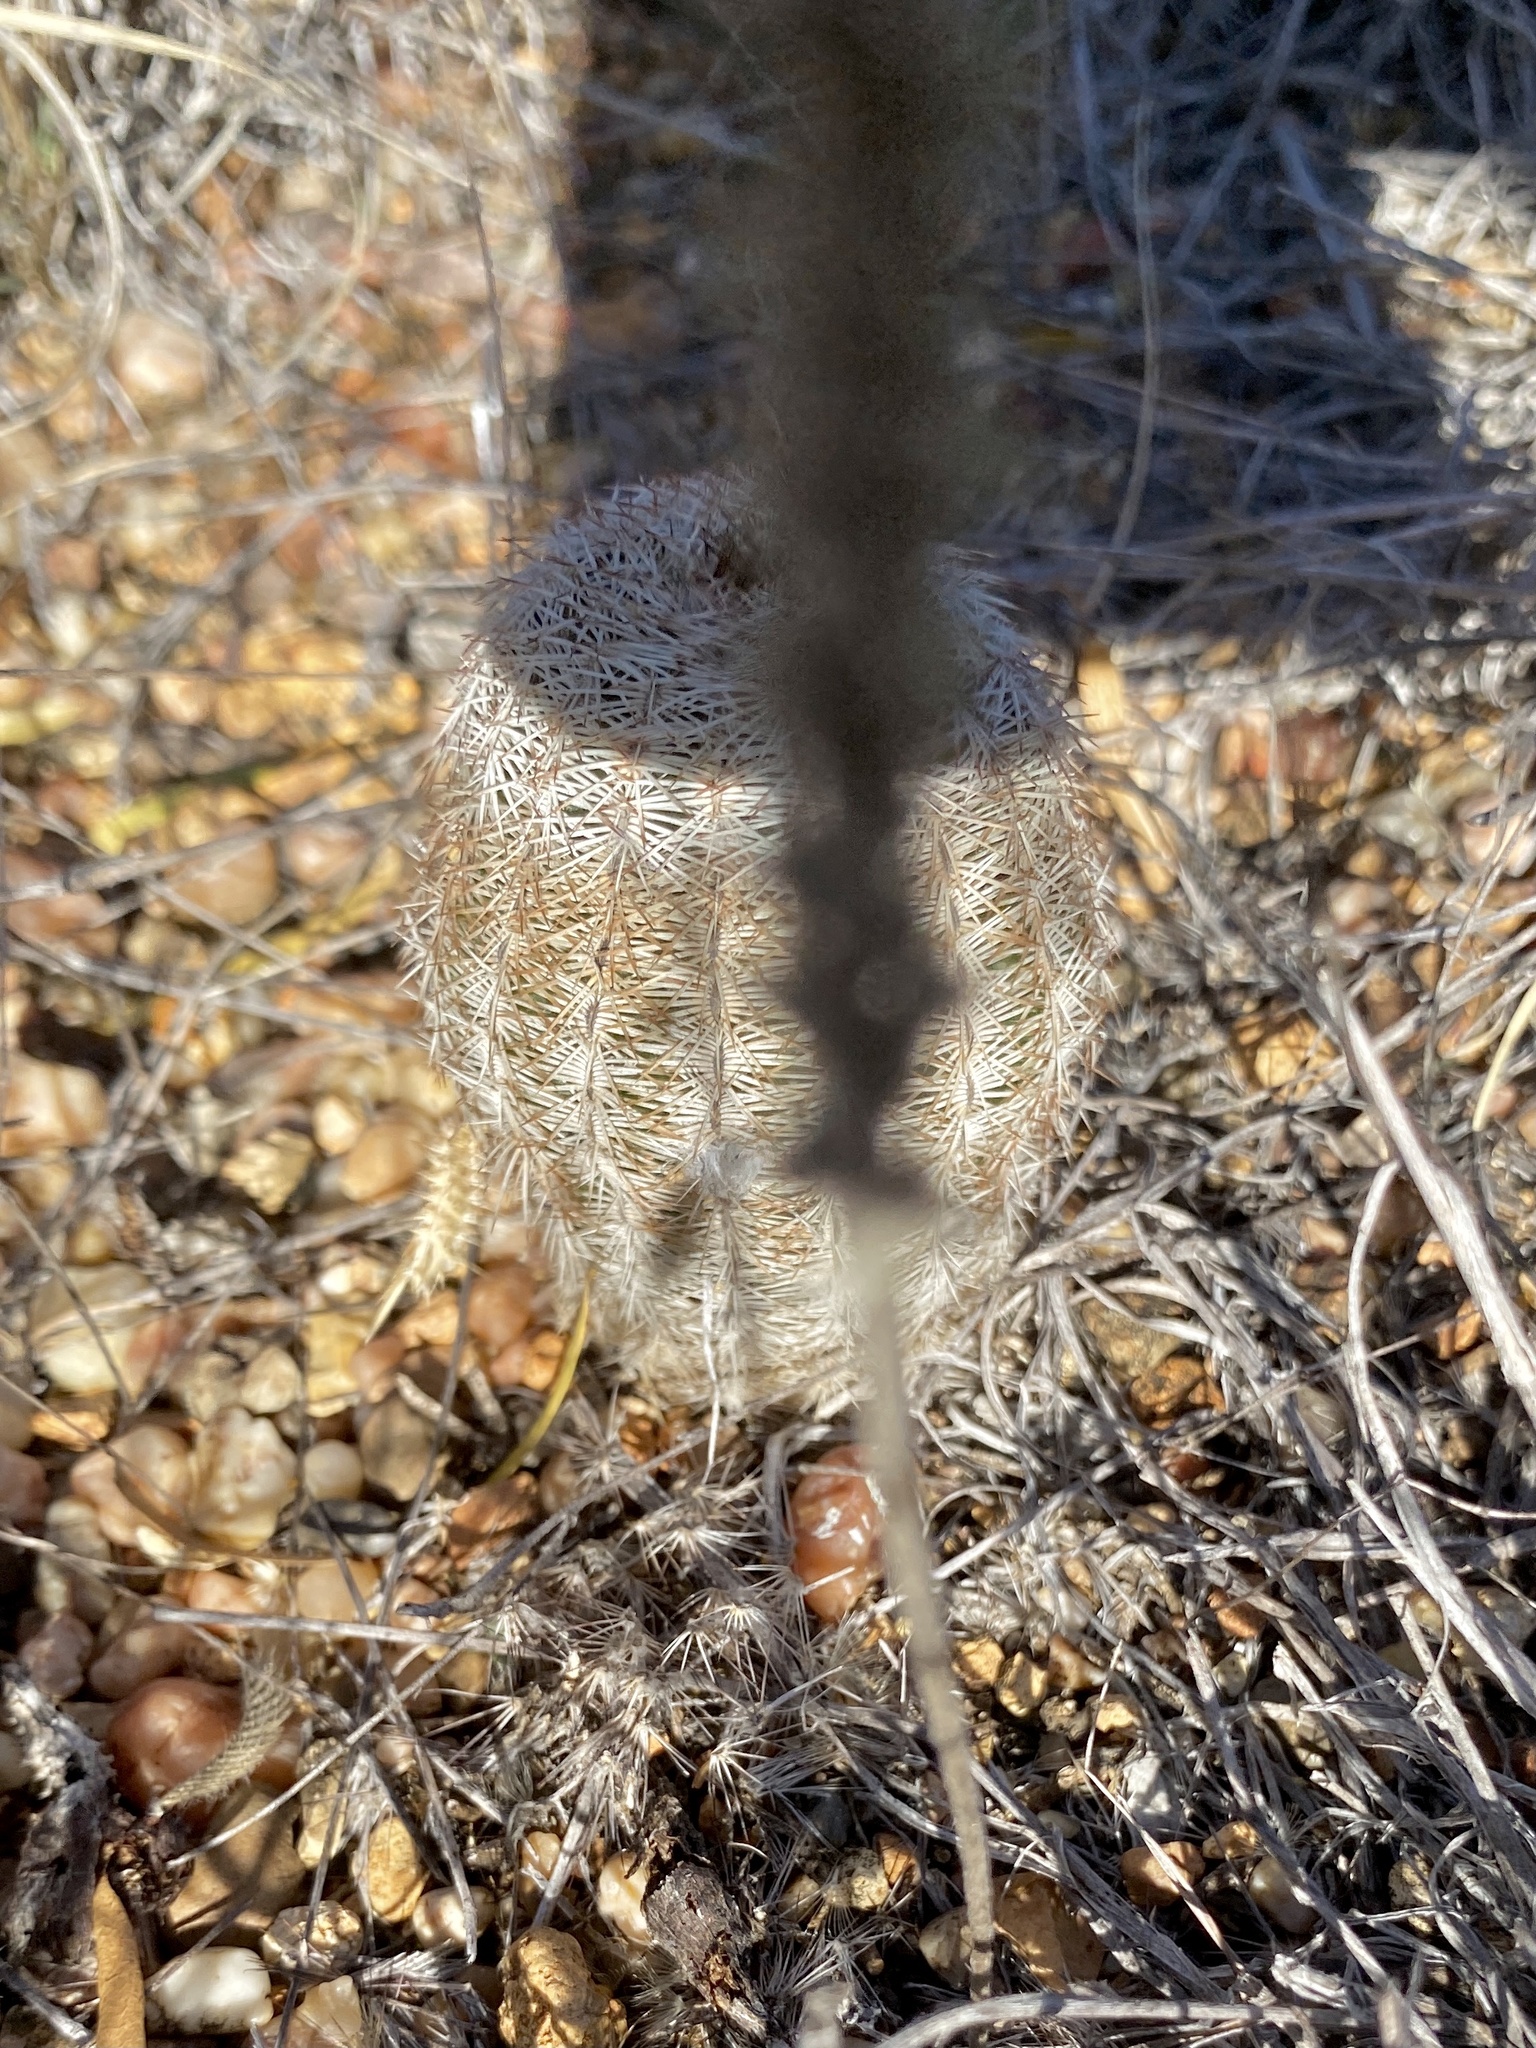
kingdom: Plantae
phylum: Tracheophyta
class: Magnoliopsida
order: Caryophyllales
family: Cactaceae
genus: Echinocereus
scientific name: Echinocereus reichenbachii
